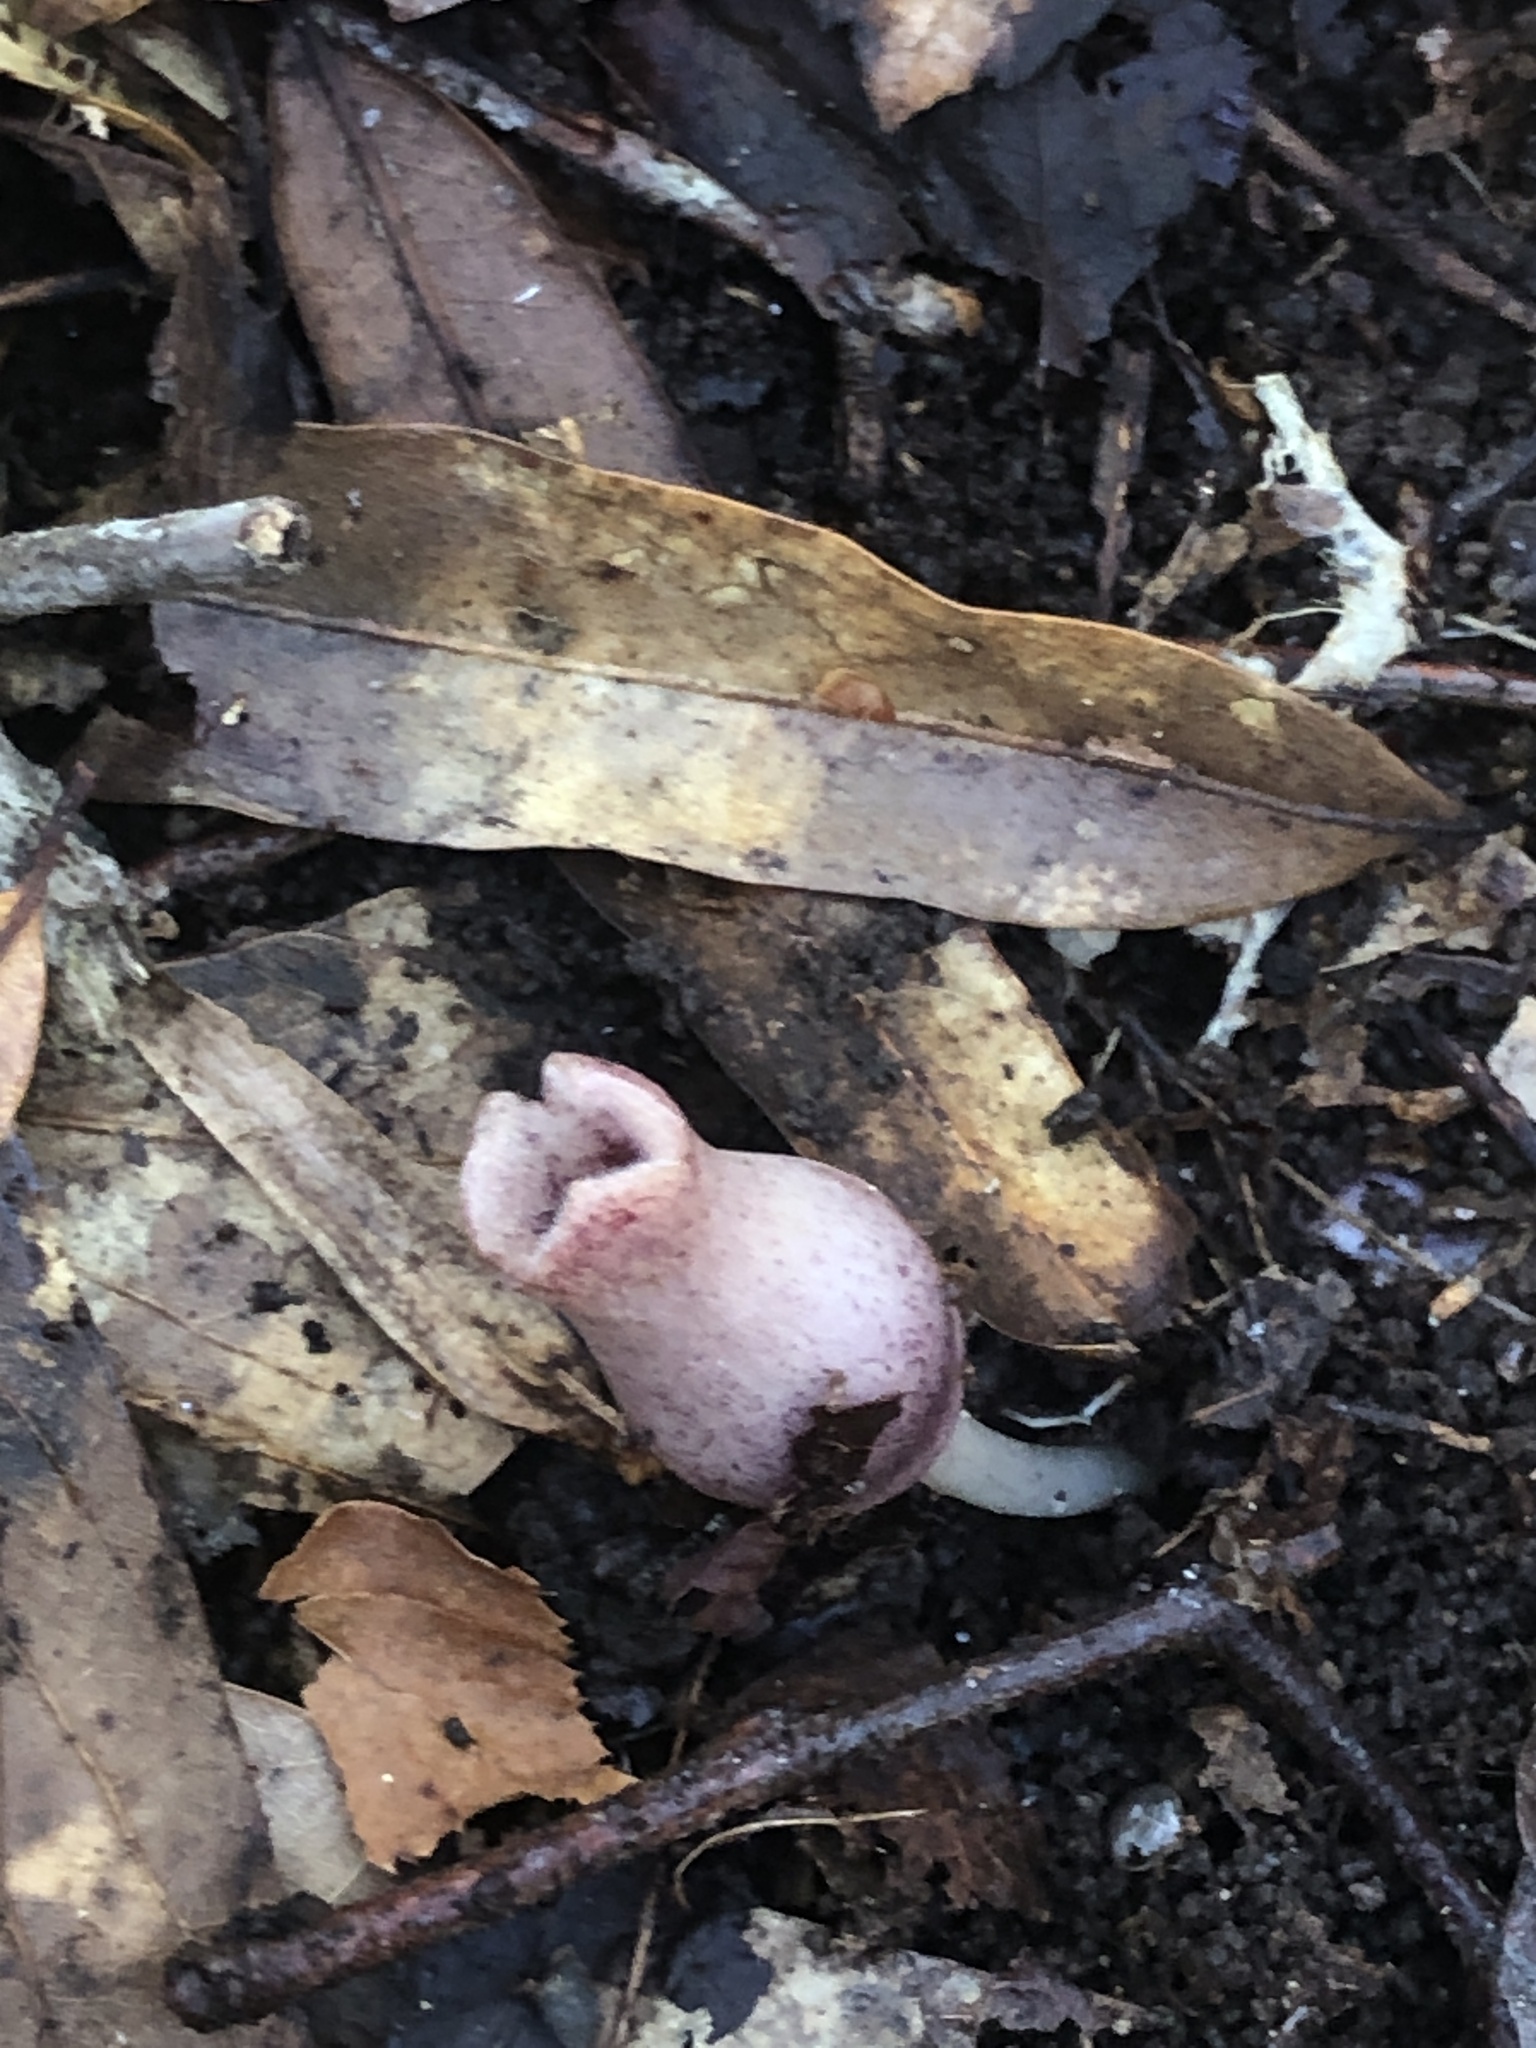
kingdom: Plantae
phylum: Tracheophyta
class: Magnoliopsida
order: Piperales
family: Aristolochiaceae
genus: Hexastylis
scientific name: Hexastylis arifolia
